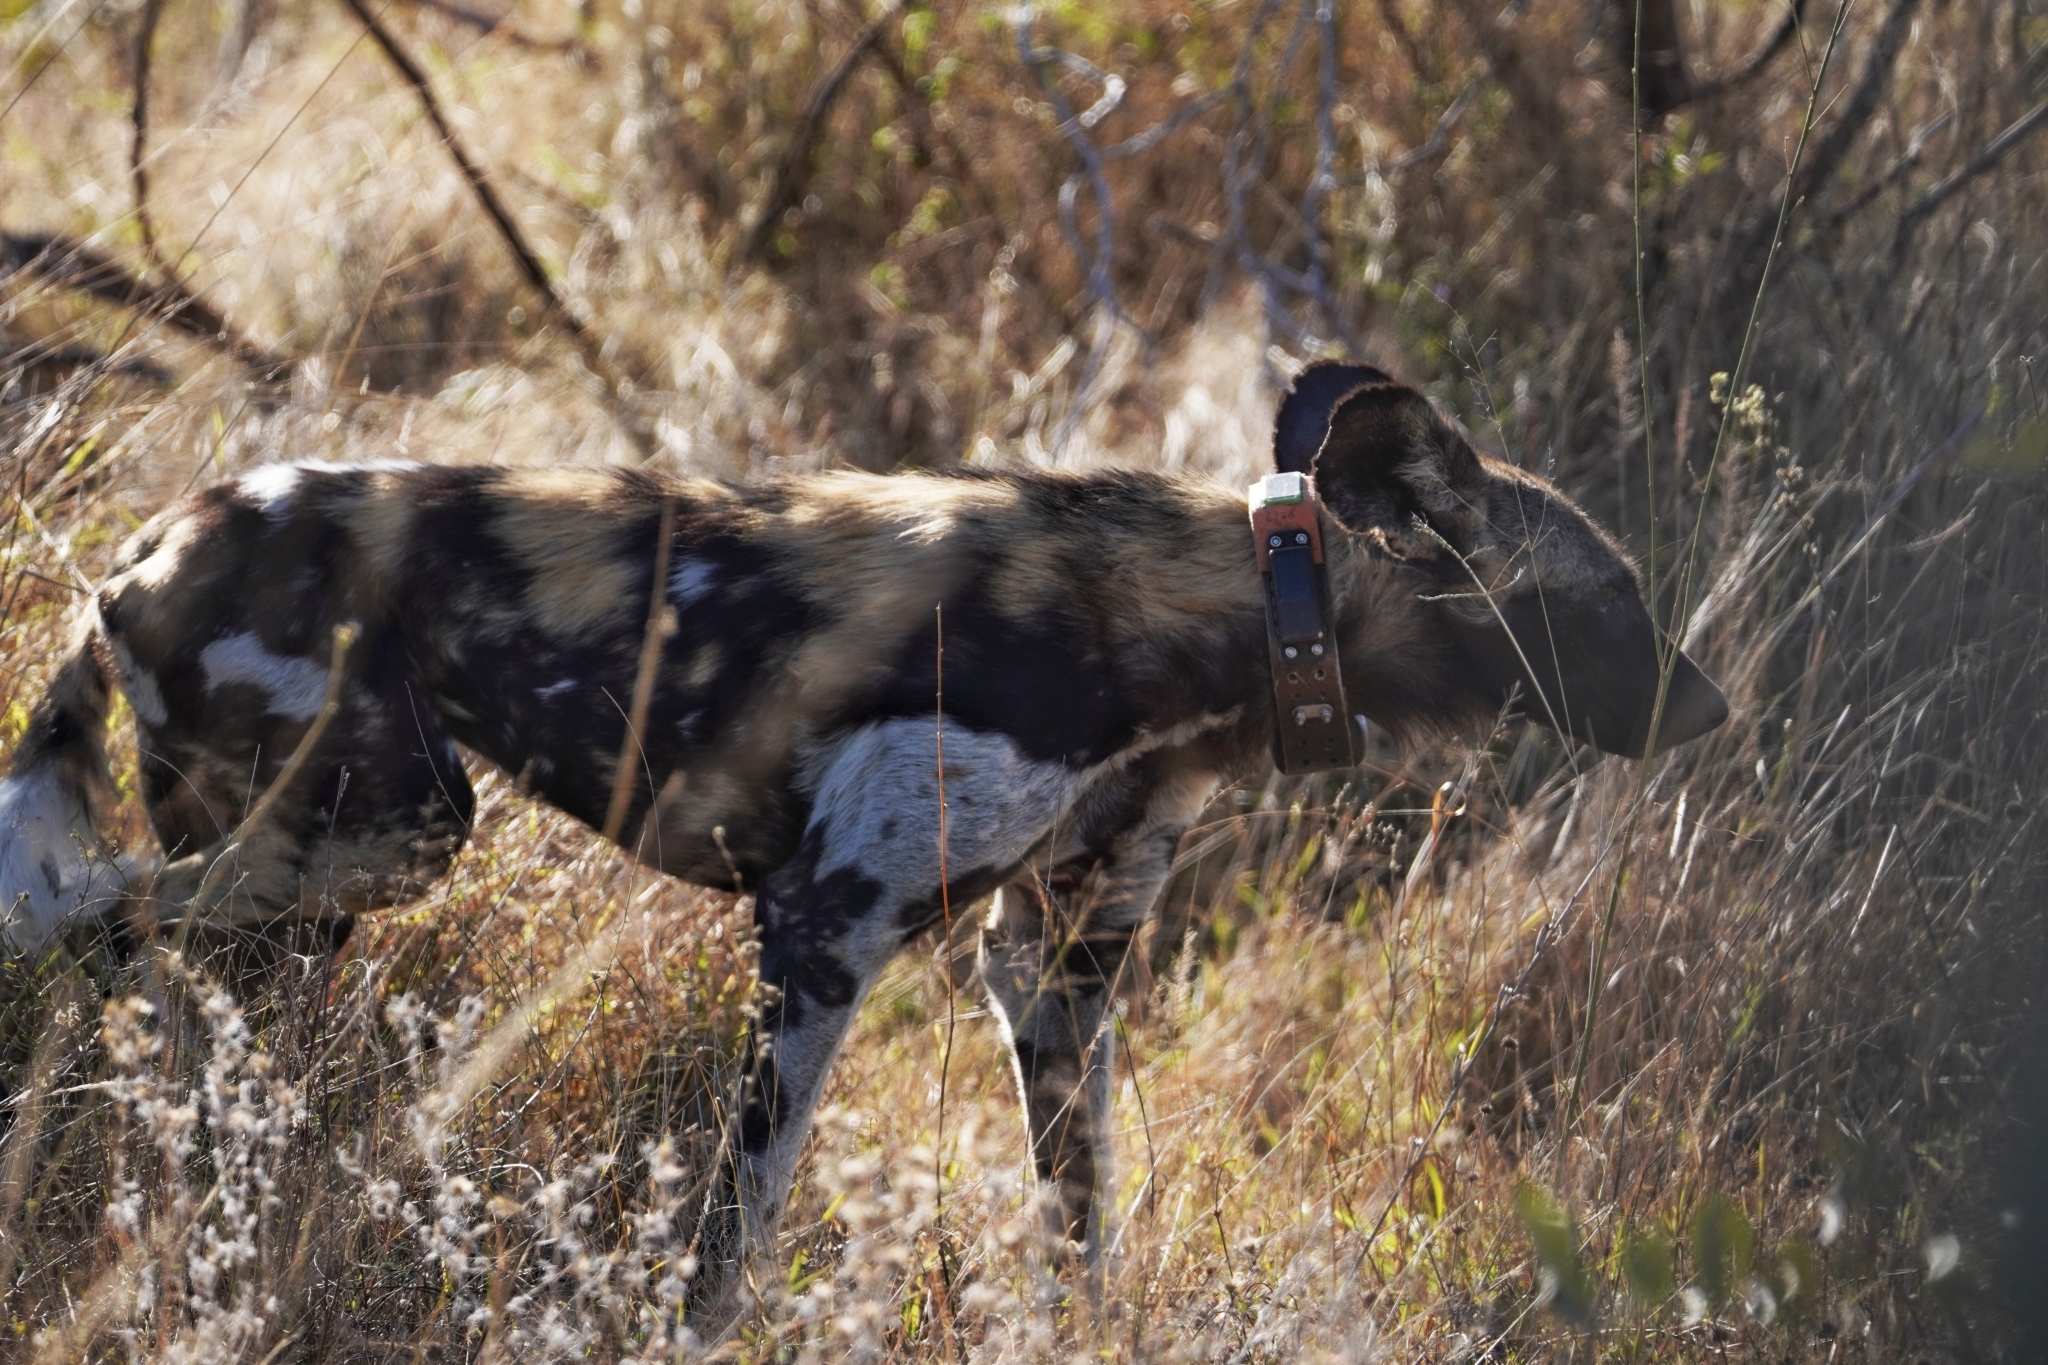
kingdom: Animalia
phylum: Chordata
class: Mammalia
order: Carnivora
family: Canidae
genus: Lycaon
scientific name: Lycaon pictus
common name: African wild dog
